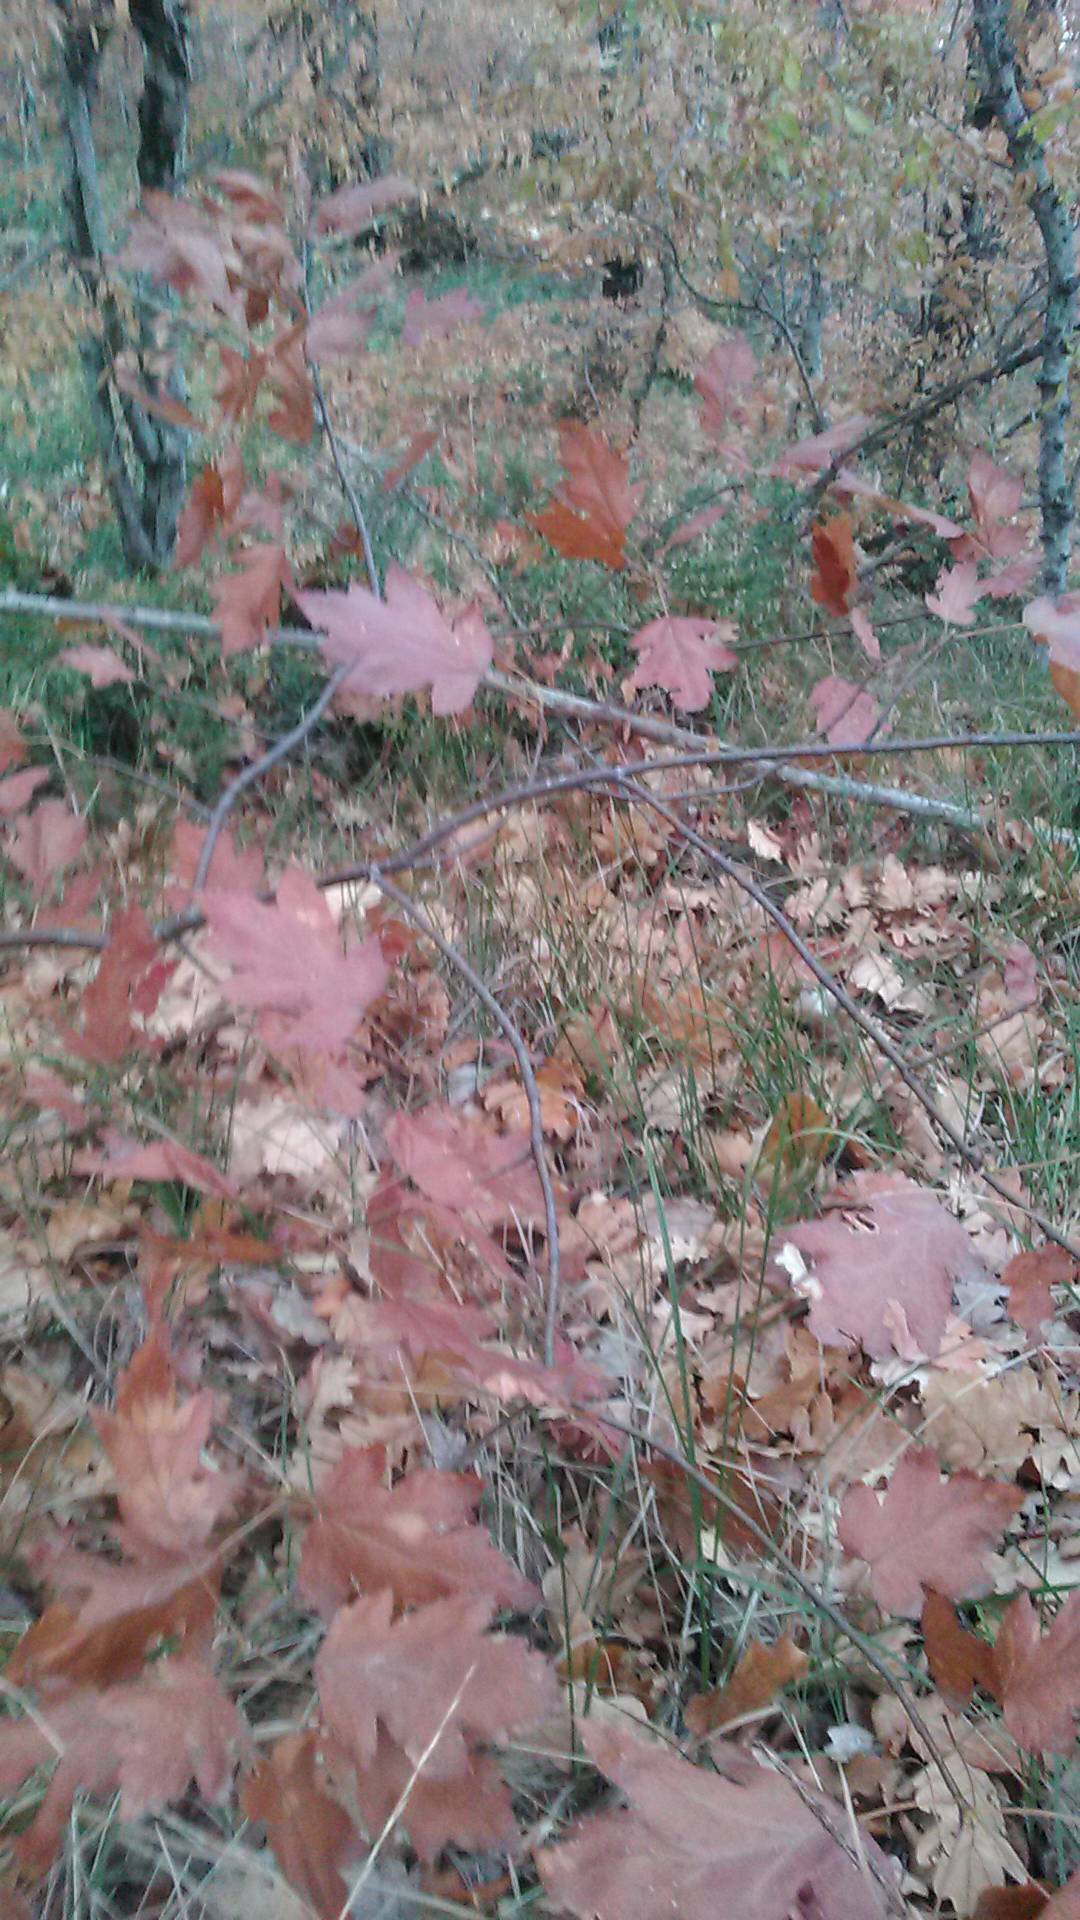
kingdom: Plantae
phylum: Tracheophyta
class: Magnoliopsida
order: Rosales
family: Rosaceae
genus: Torminalis
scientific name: Torminalis glaberrima
